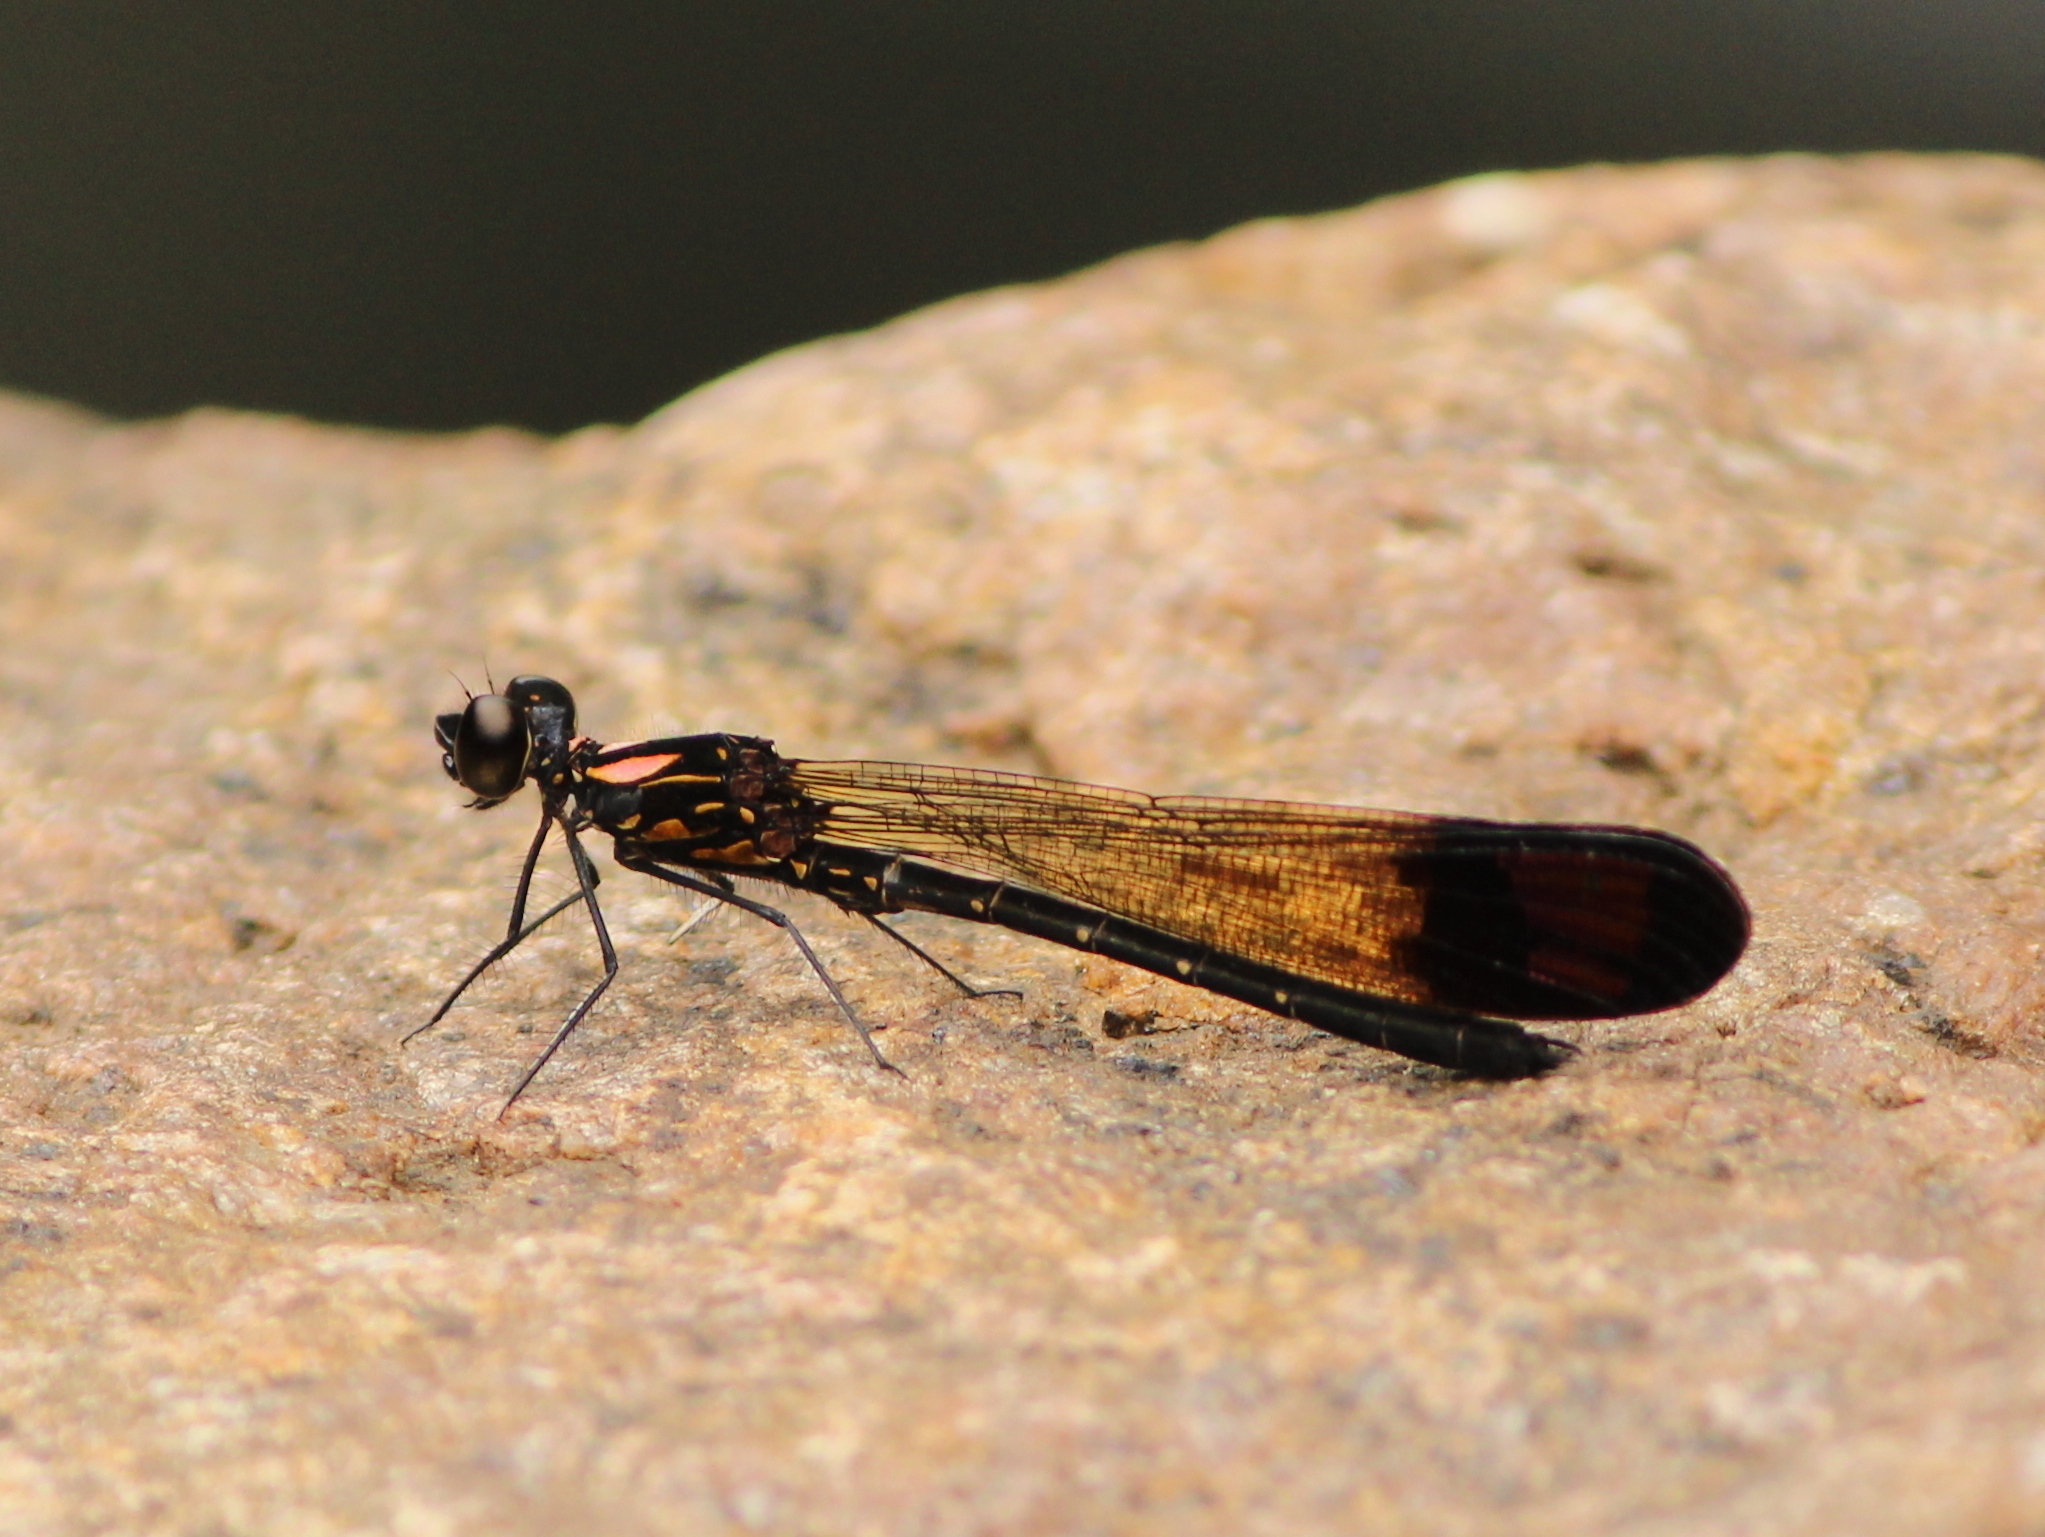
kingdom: Animalia
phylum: Arthropoda
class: Insecta
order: Odonata
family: Chlorocyphidae
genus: Heliocypha
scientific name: Heliocypha bisignata
